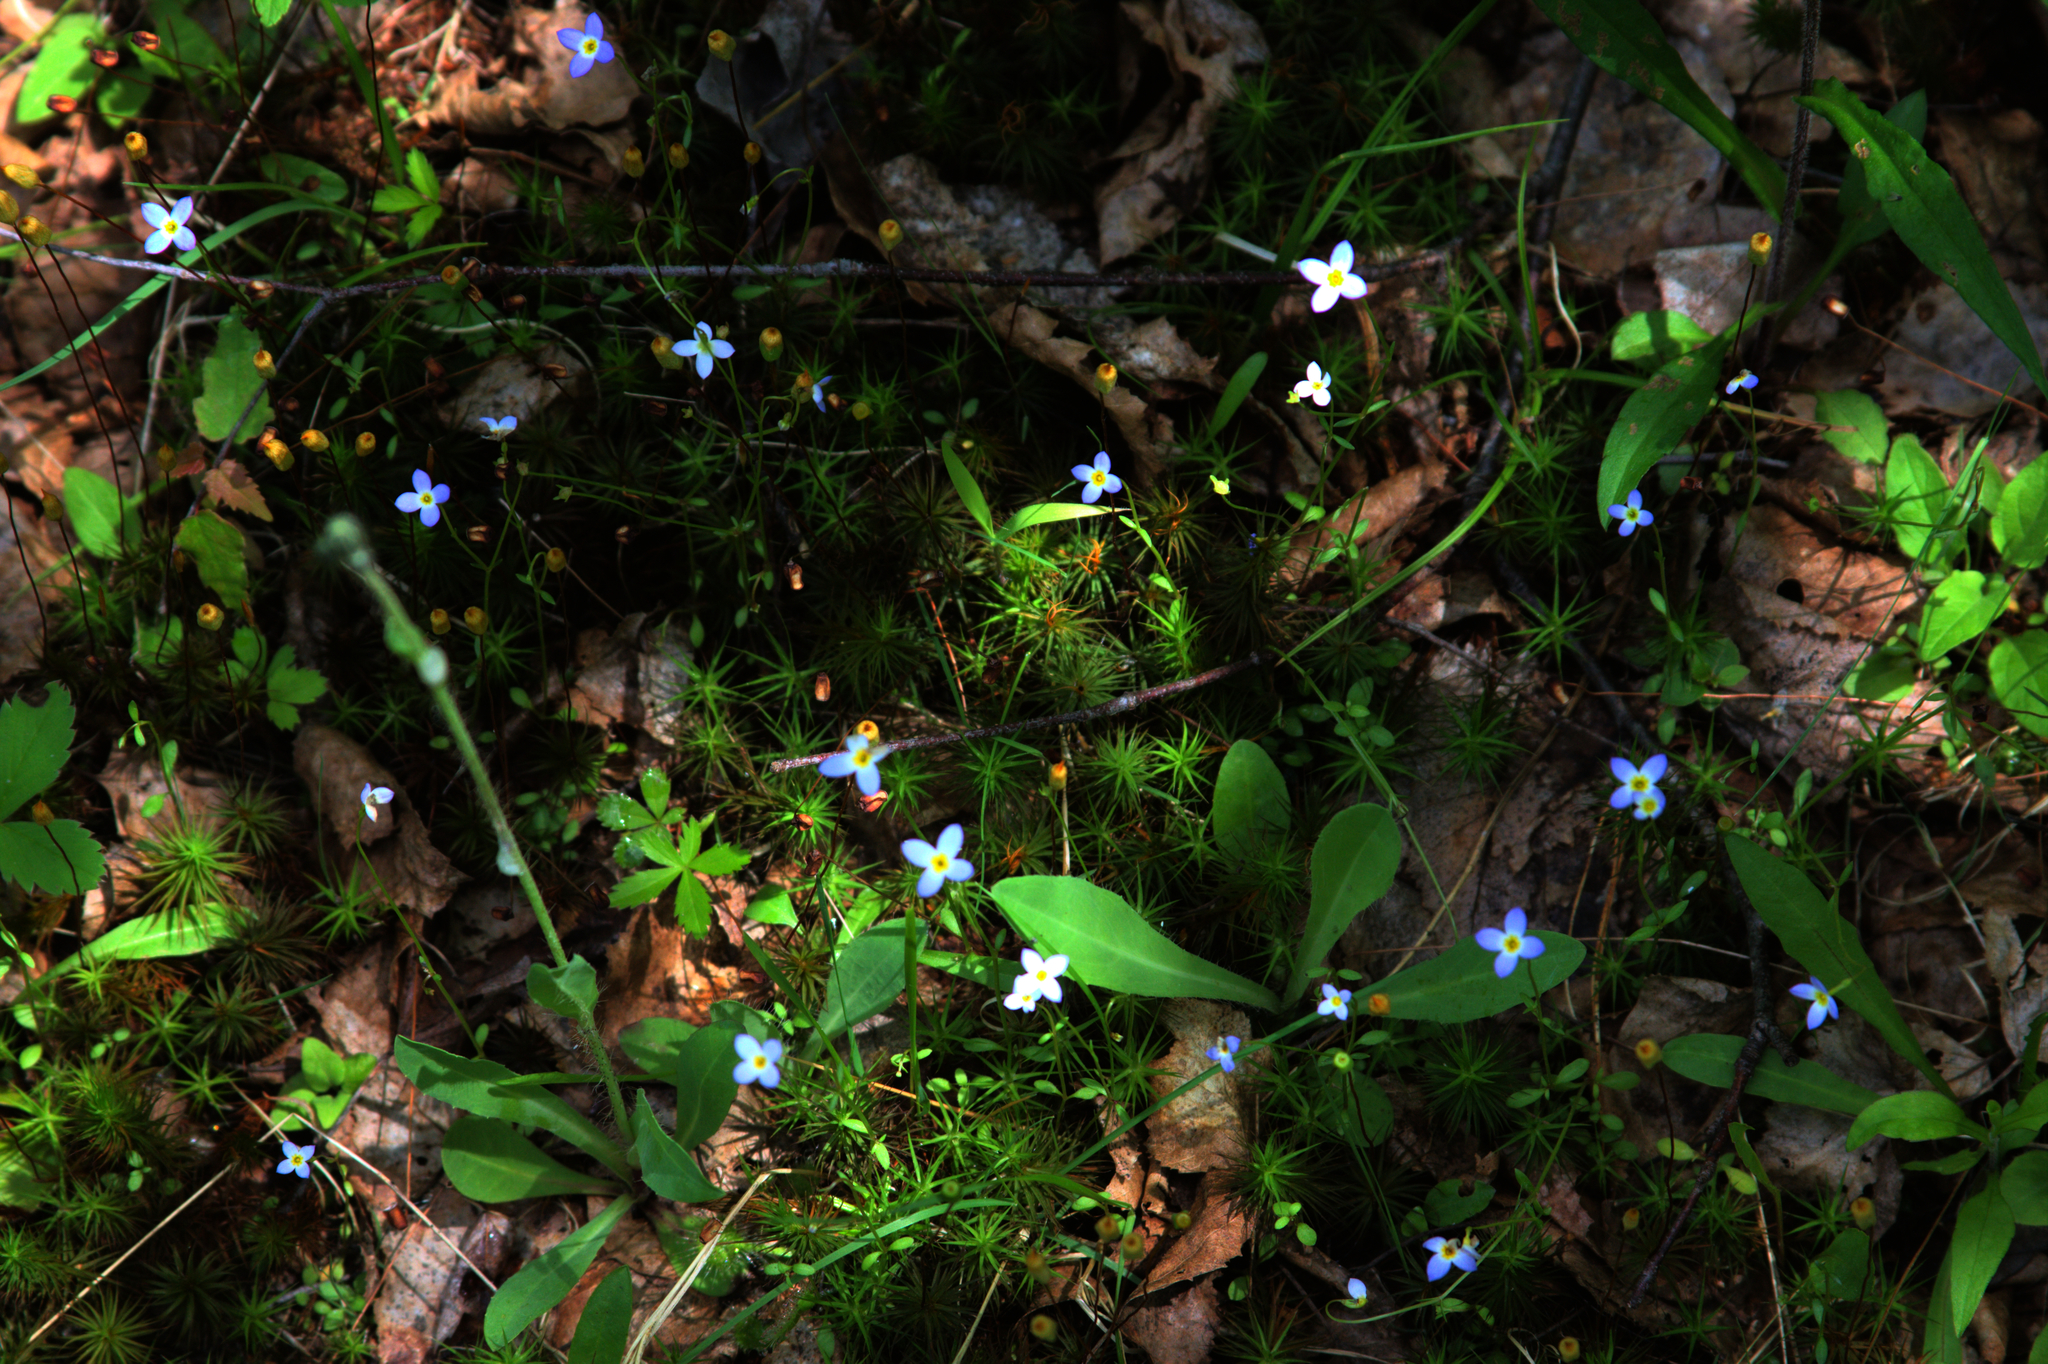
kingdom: Plantae
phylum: Tracheophyta
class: Magnoliopsida
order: Gentianales
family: Rubiaceae
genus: Houstonia
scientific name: Houstonia caerulea
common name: Bluets
